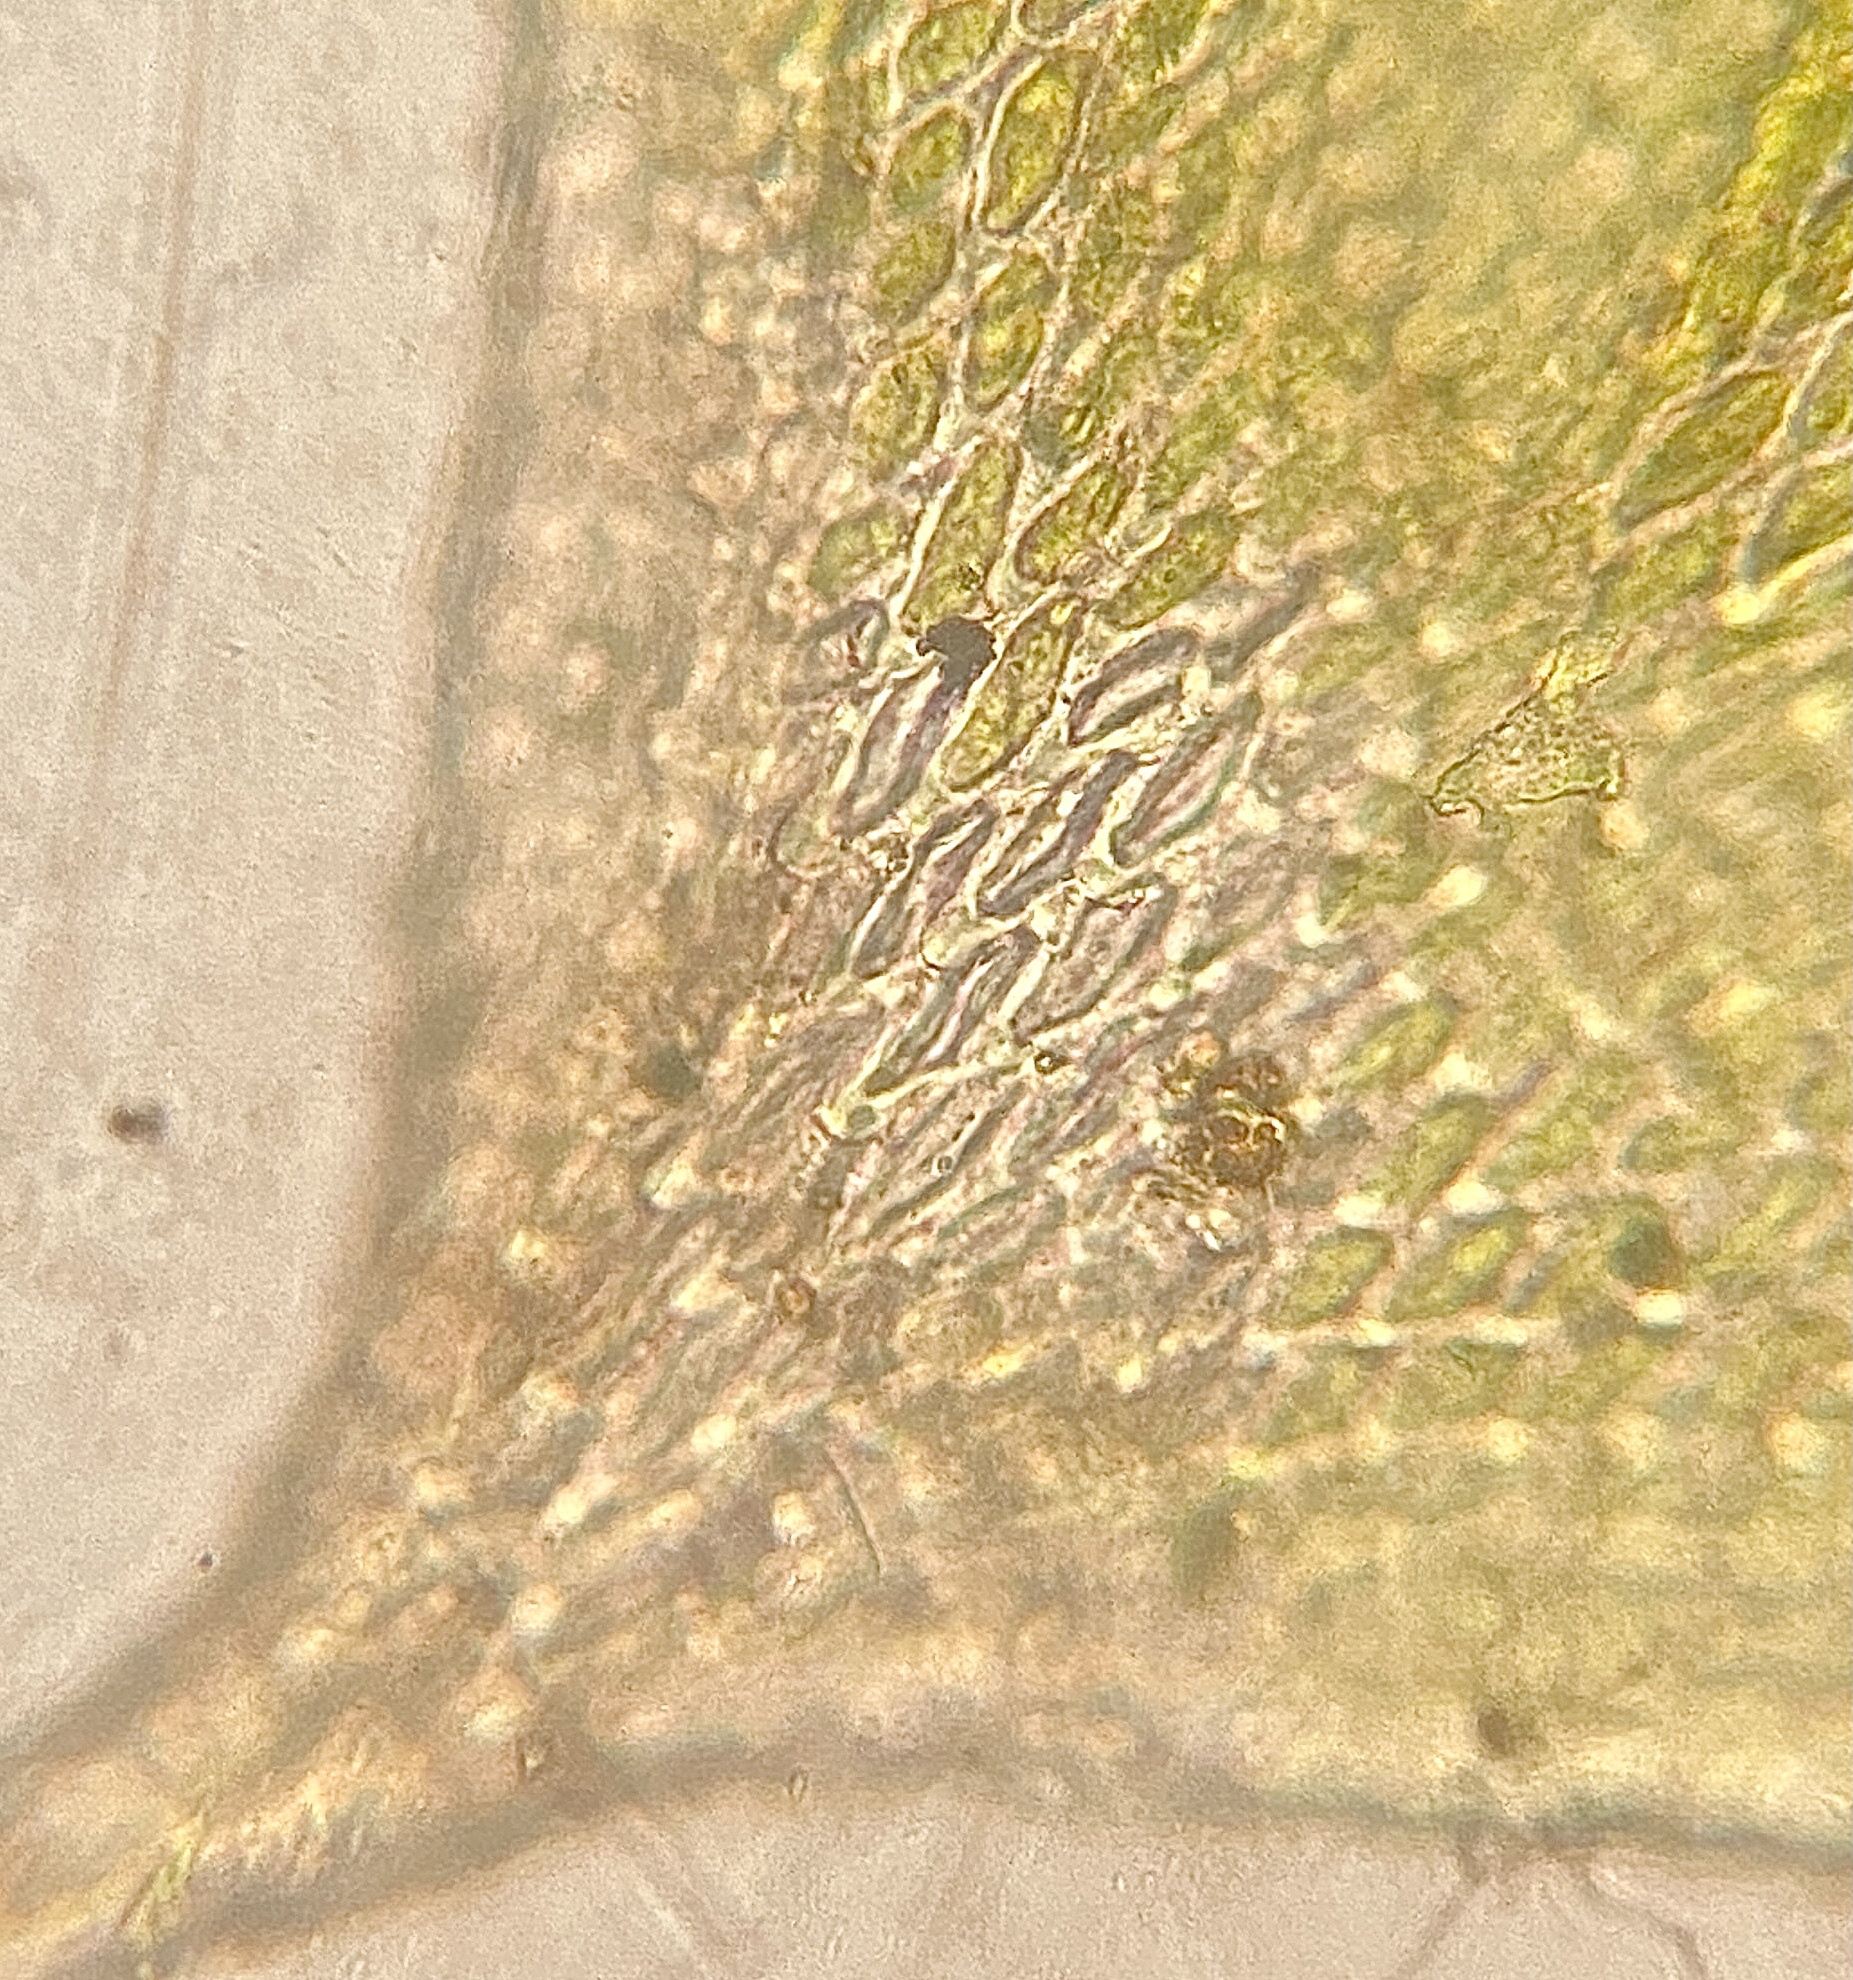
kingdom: Plantae
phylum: Bryophyta
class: Bryopsida
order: Hypnales
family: Leucodontaceae
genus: Leucodon
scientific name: Leucodon julaceus
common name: Smooth hook moss
